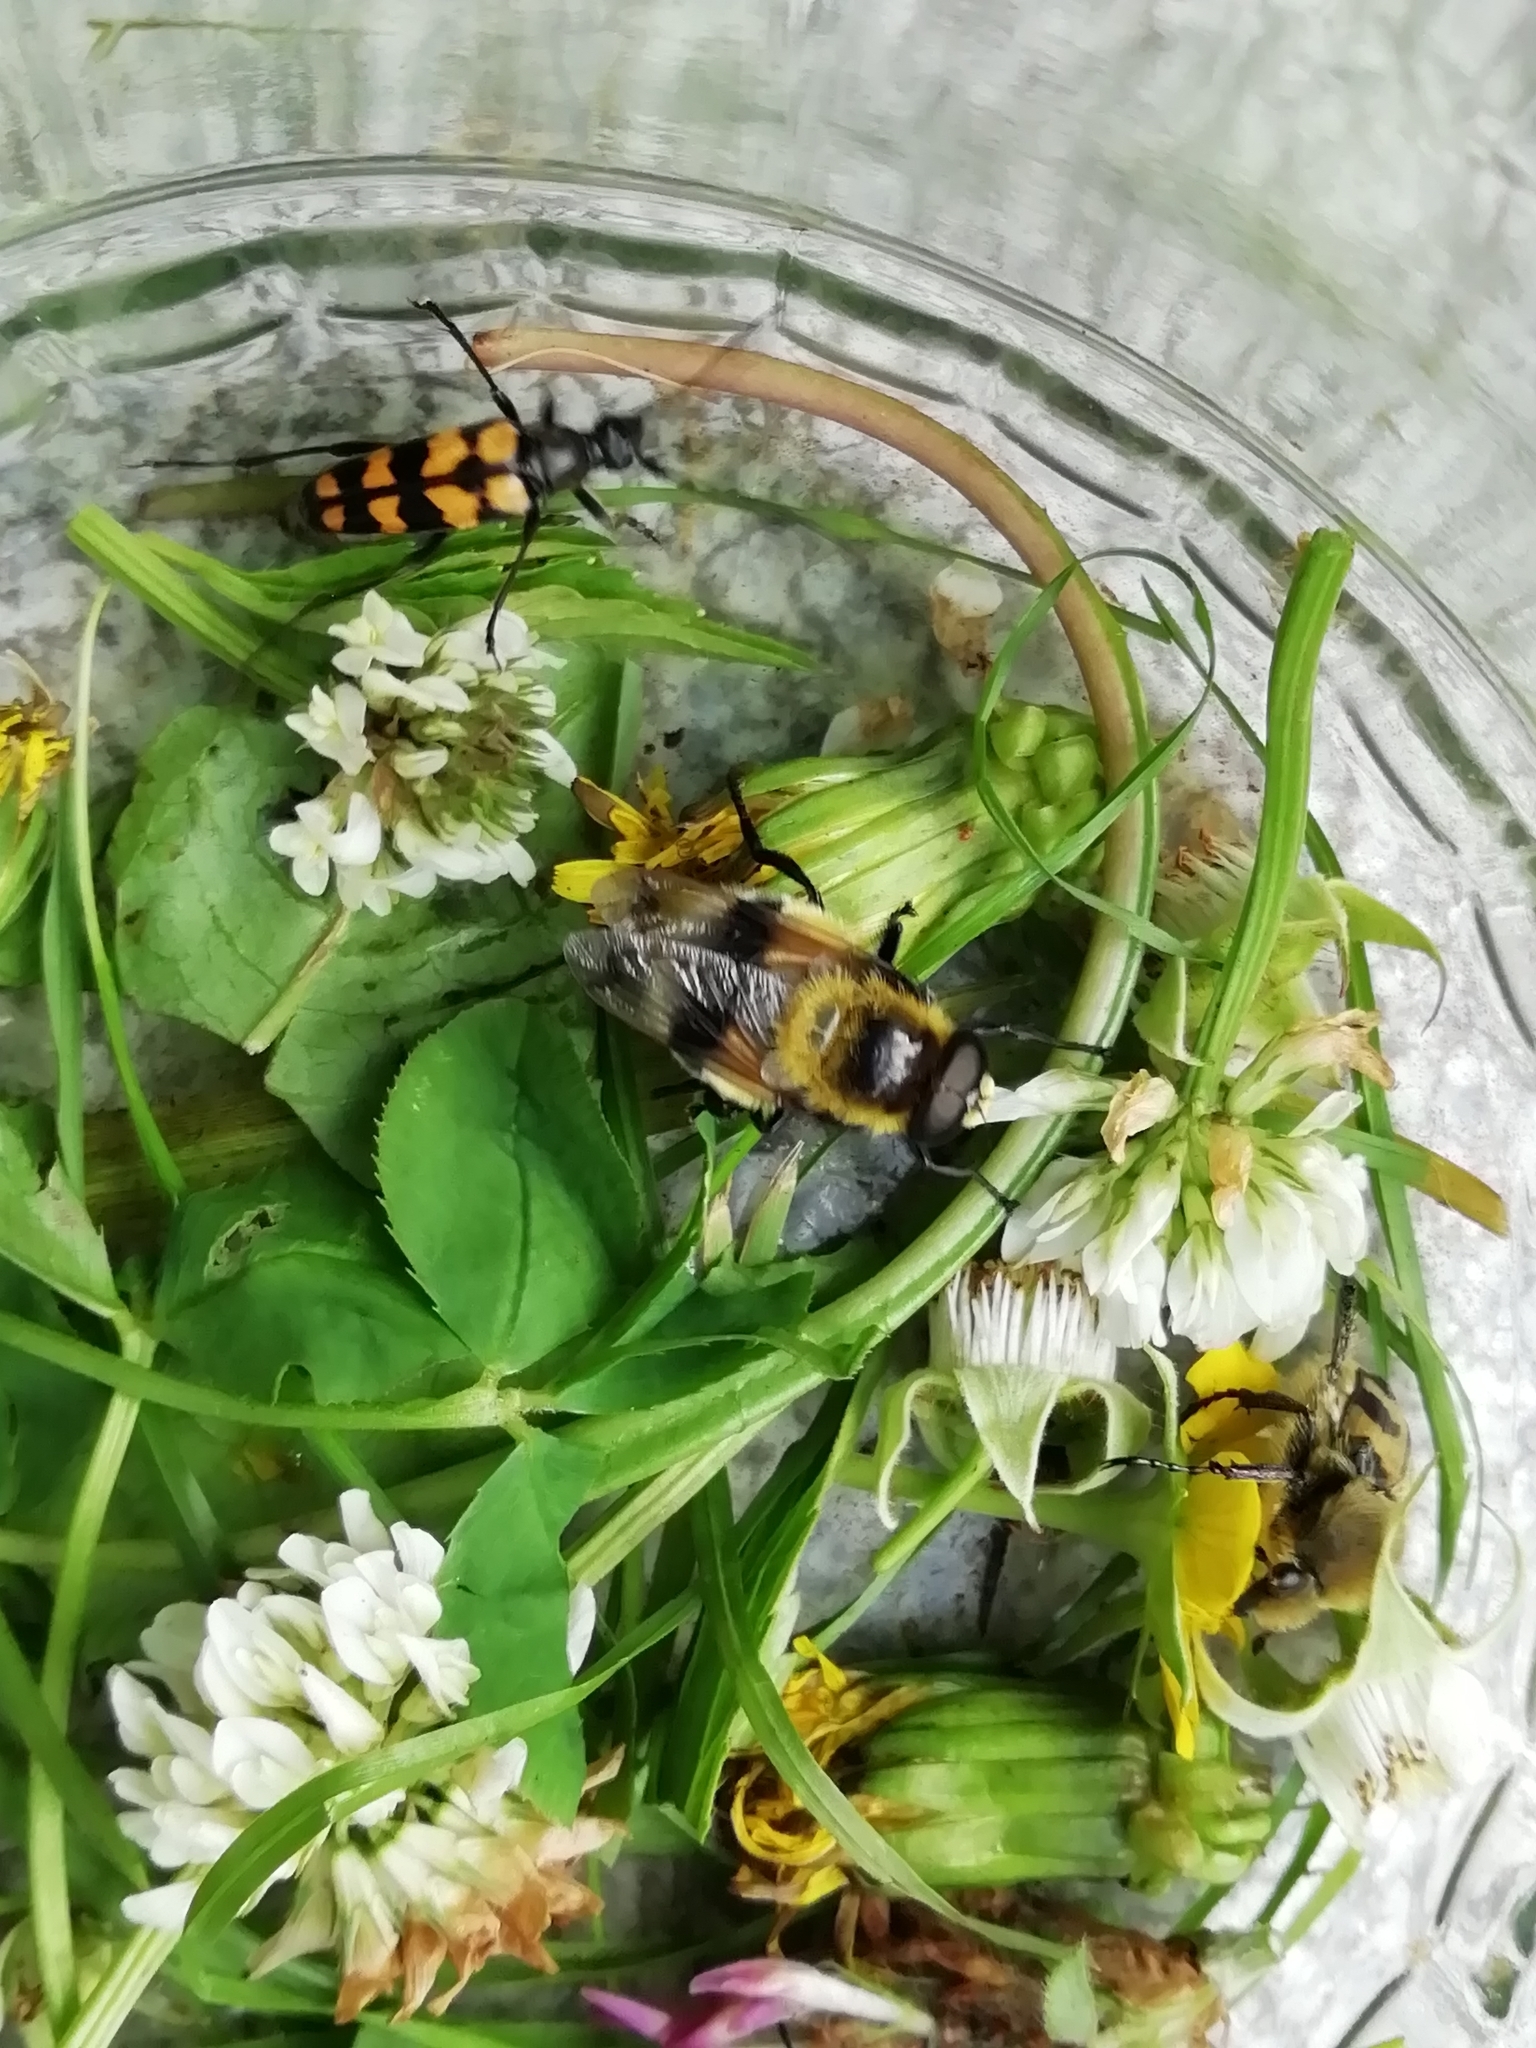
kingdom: Animalia
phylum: Arthropoda
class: Insecta
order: Diptera
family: Syrphidae
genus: Volucella
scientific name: Volucella bombylans
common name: Bumble bee hover fly
